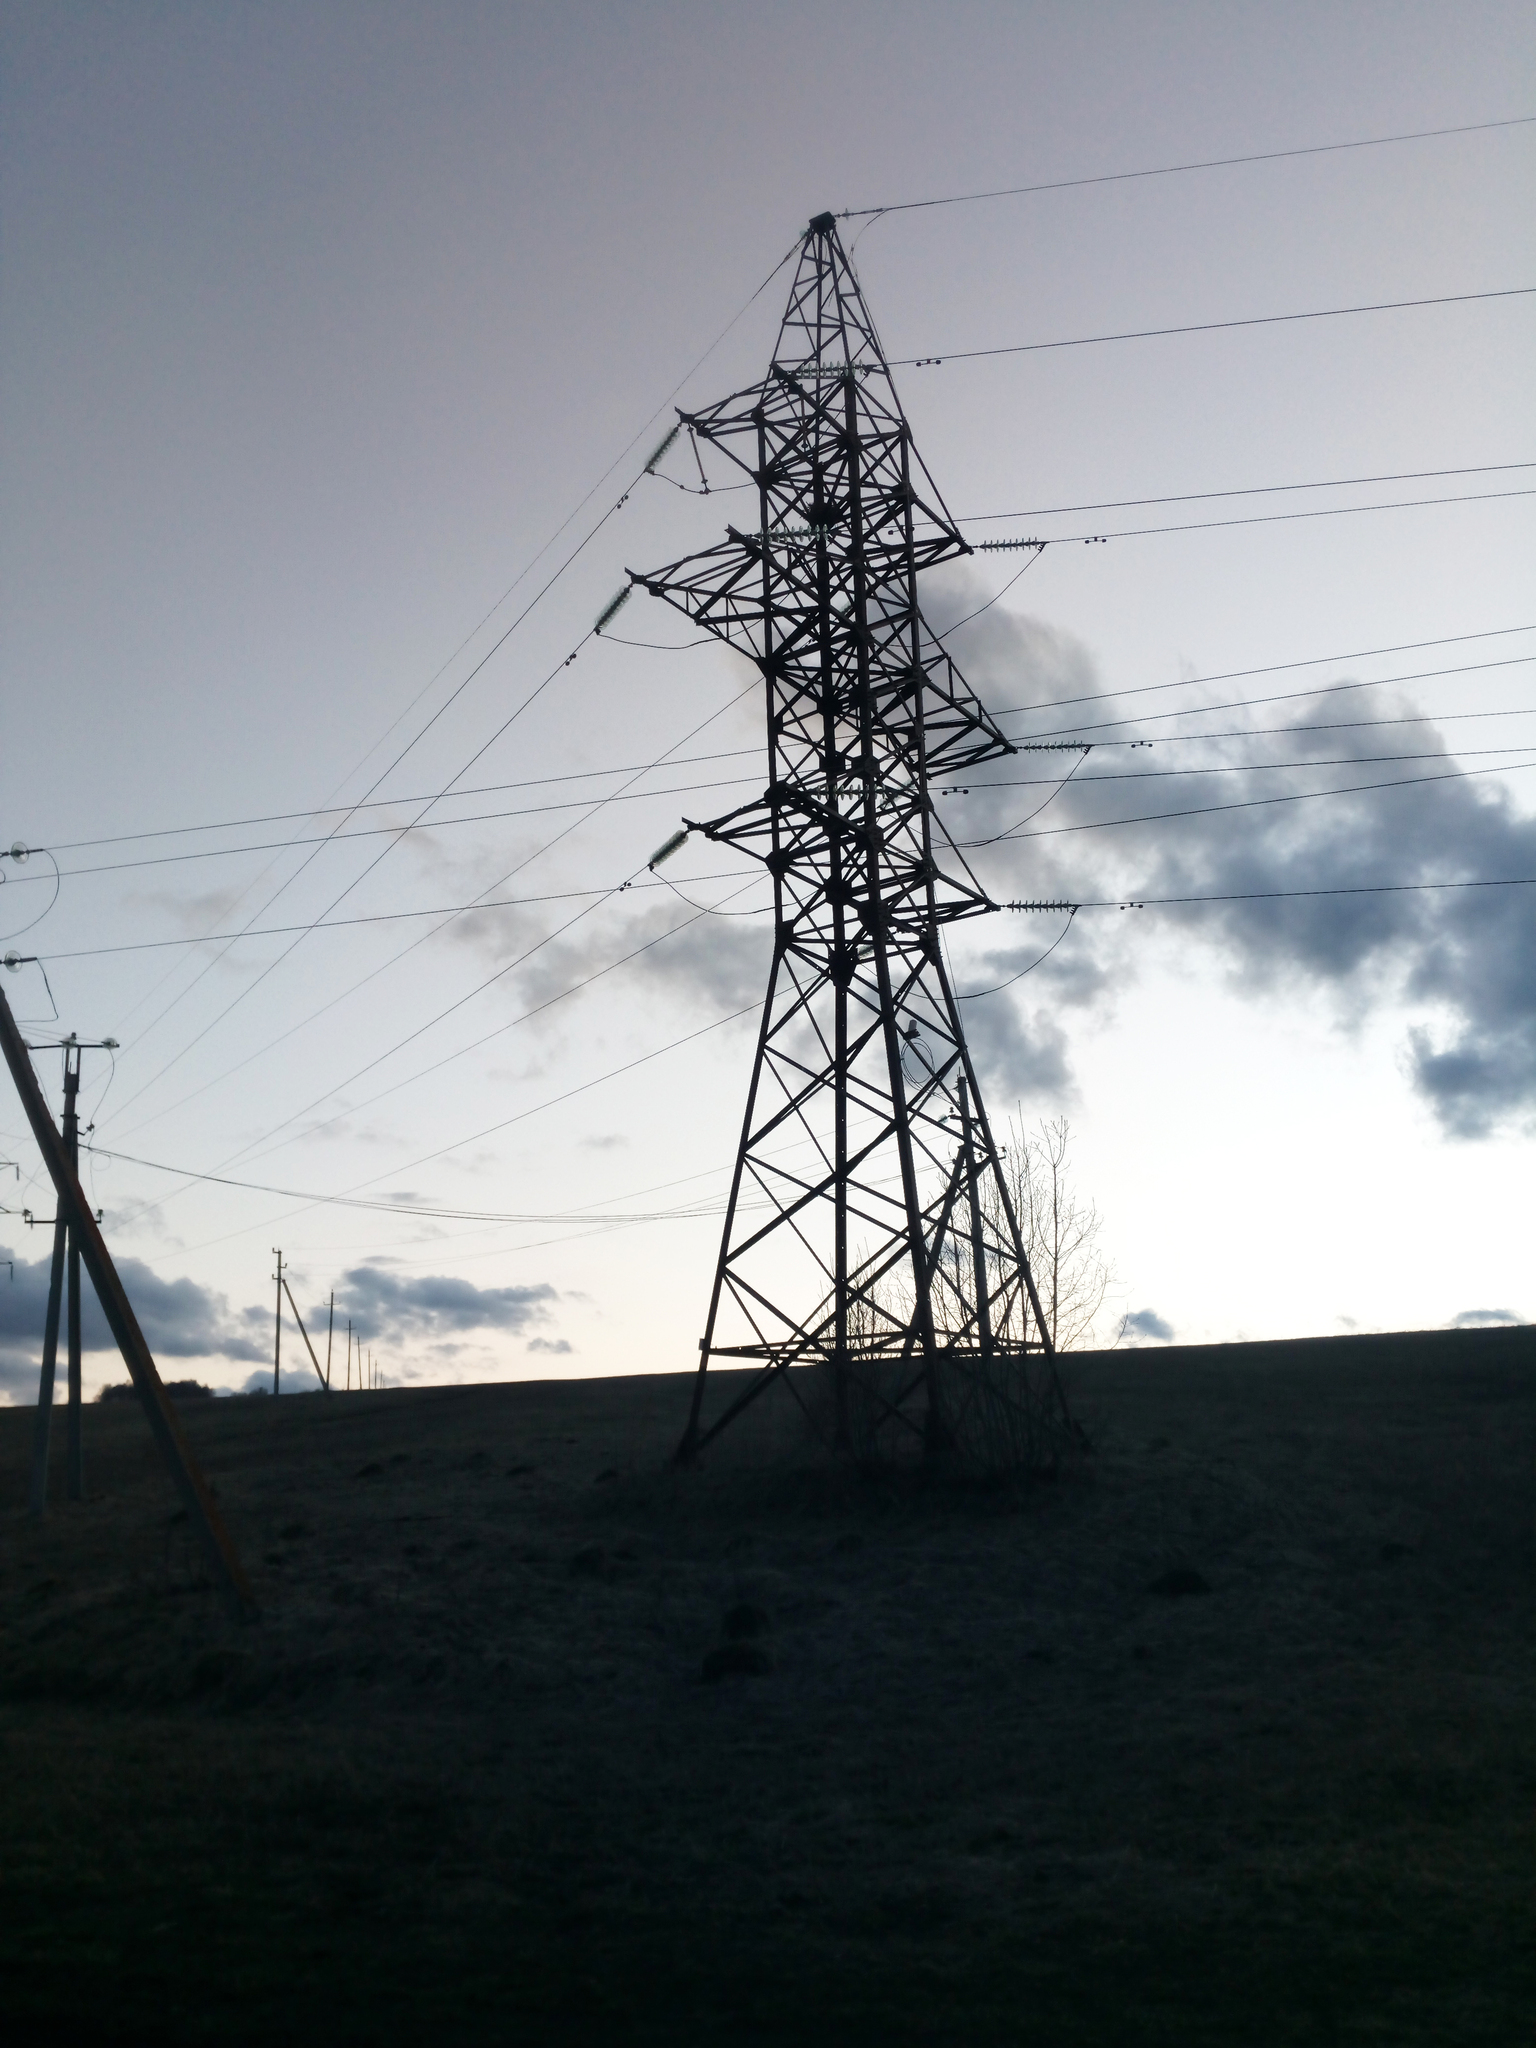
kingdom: Animalia
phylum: Chordata
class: Aves
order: Passeriformes
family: Corvidae
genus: Corvus
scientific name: Corvus corax
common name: Common raven
